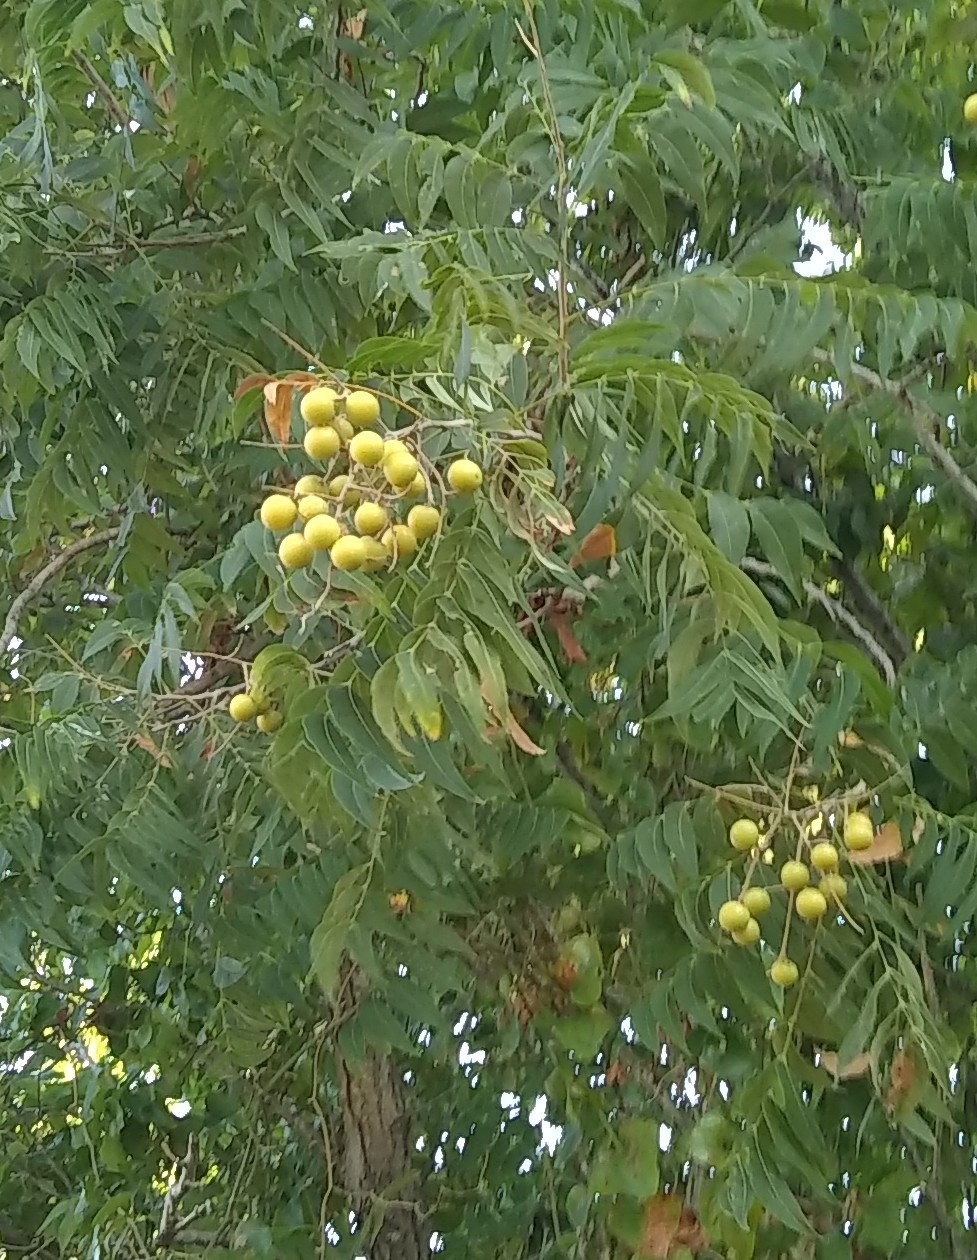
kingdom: Plantae
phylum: Tracheophyta
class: Magnoliopsida
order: Sapindales
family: Sapindaceae
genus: Sapindus
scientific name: Sapindus drummondii
